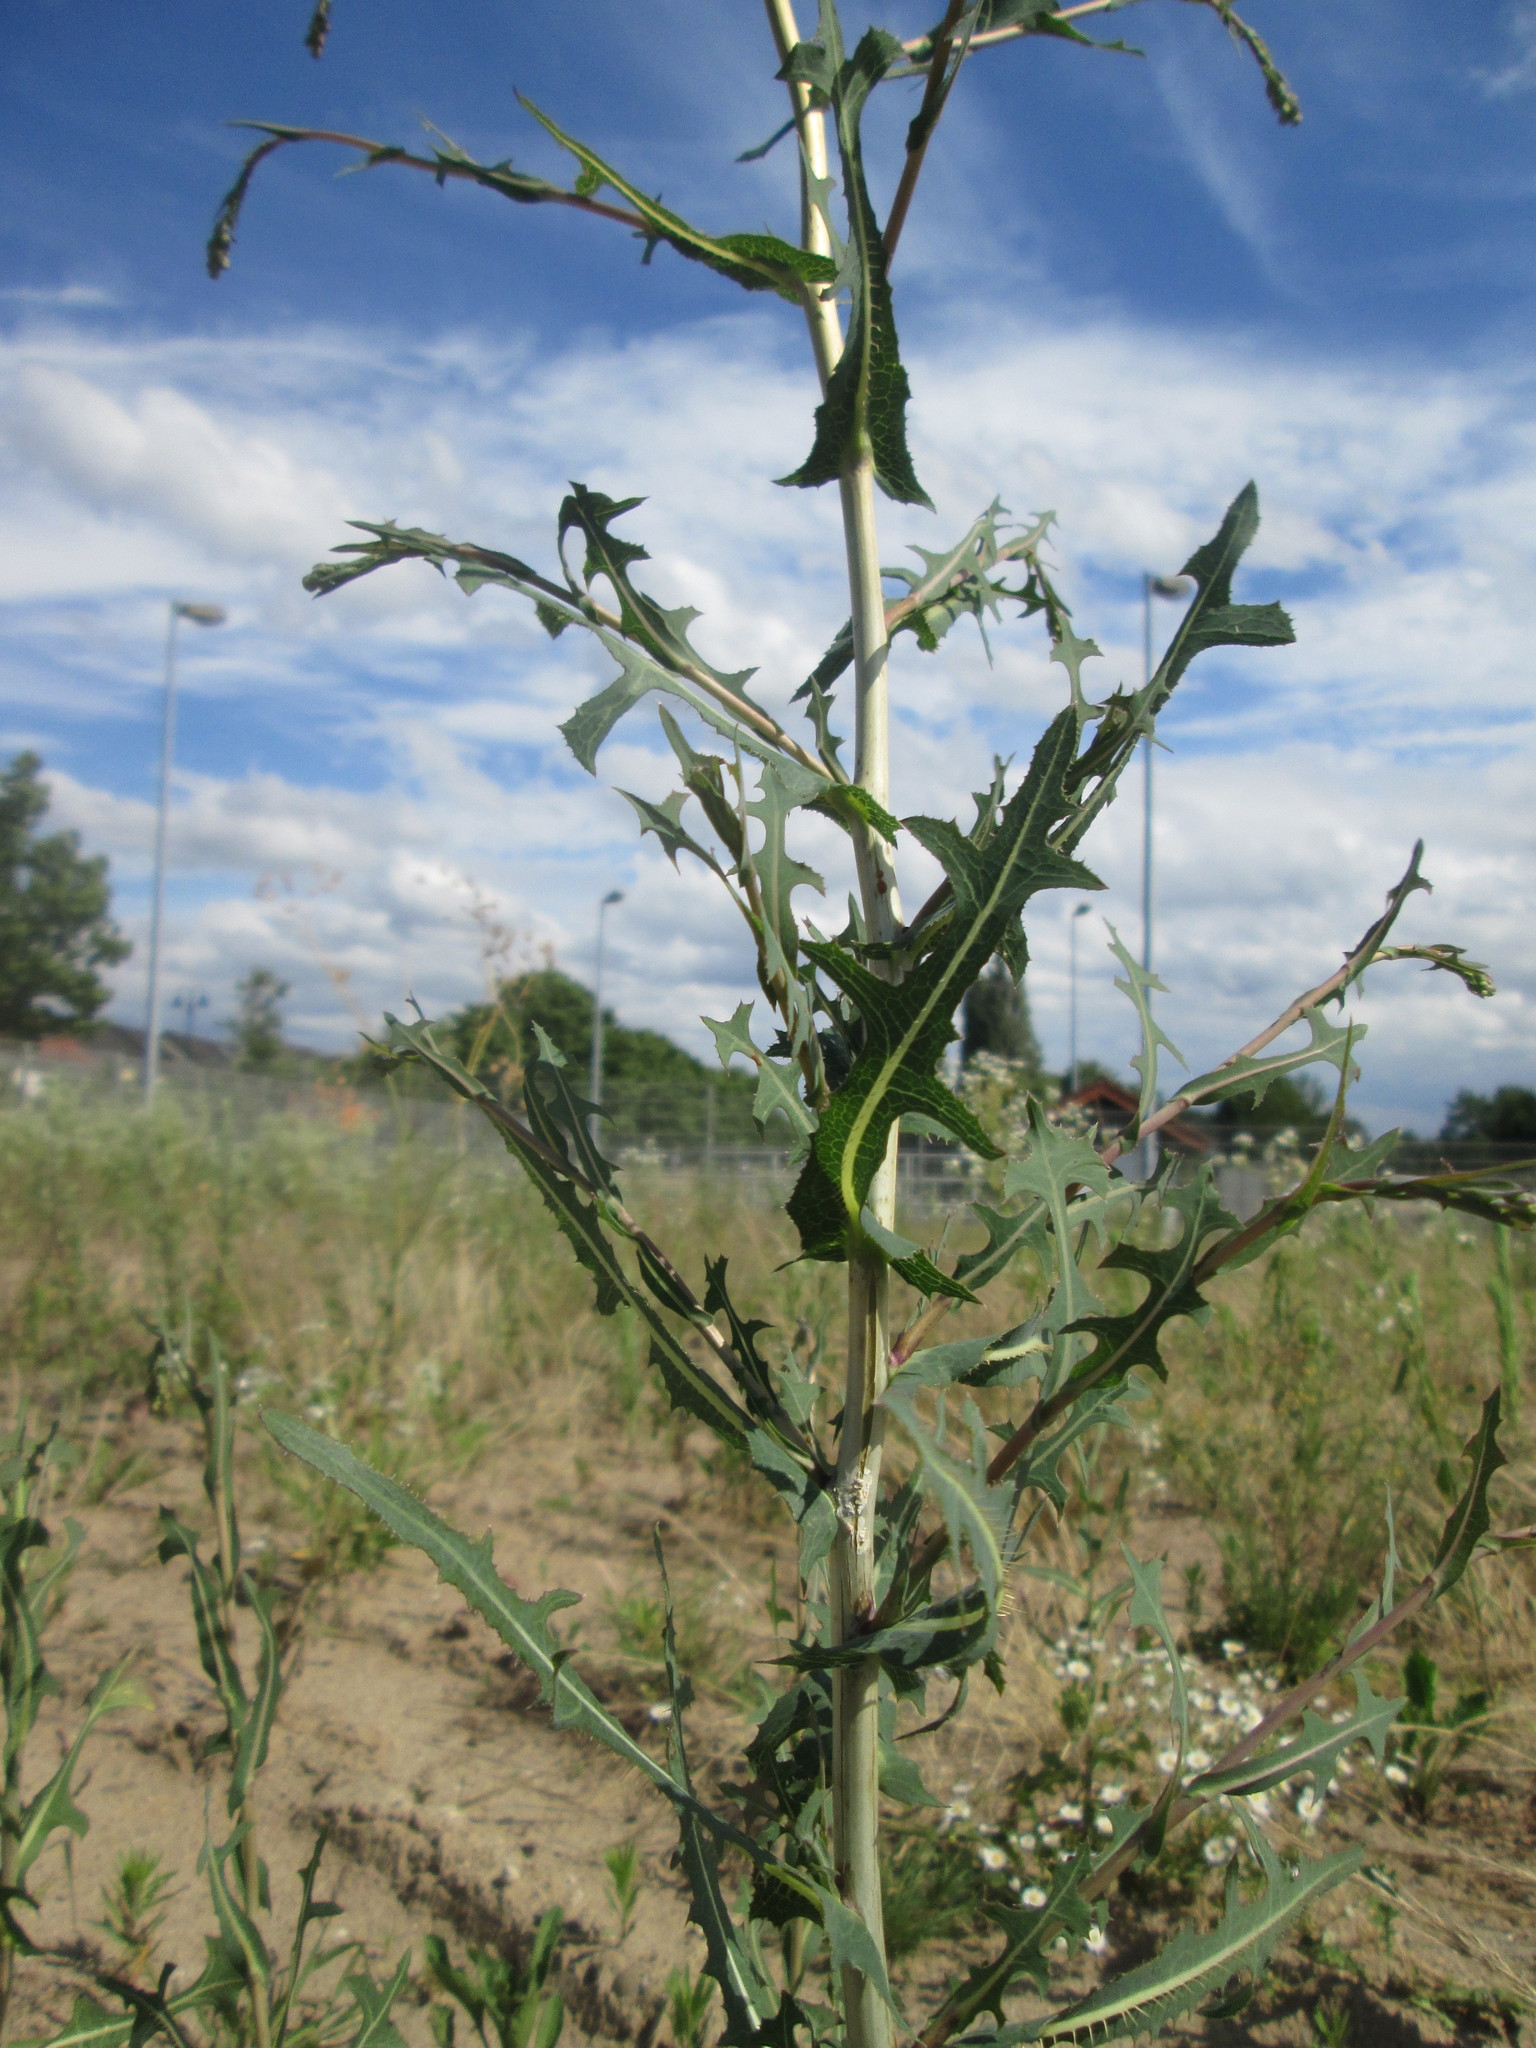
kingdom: Plantae
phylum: Tracheophyta
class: Magnoliopsida
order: Asterales
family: Asteraceae
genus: Lactuca
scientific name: Lactuca serriola
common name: Prickly lettuce
